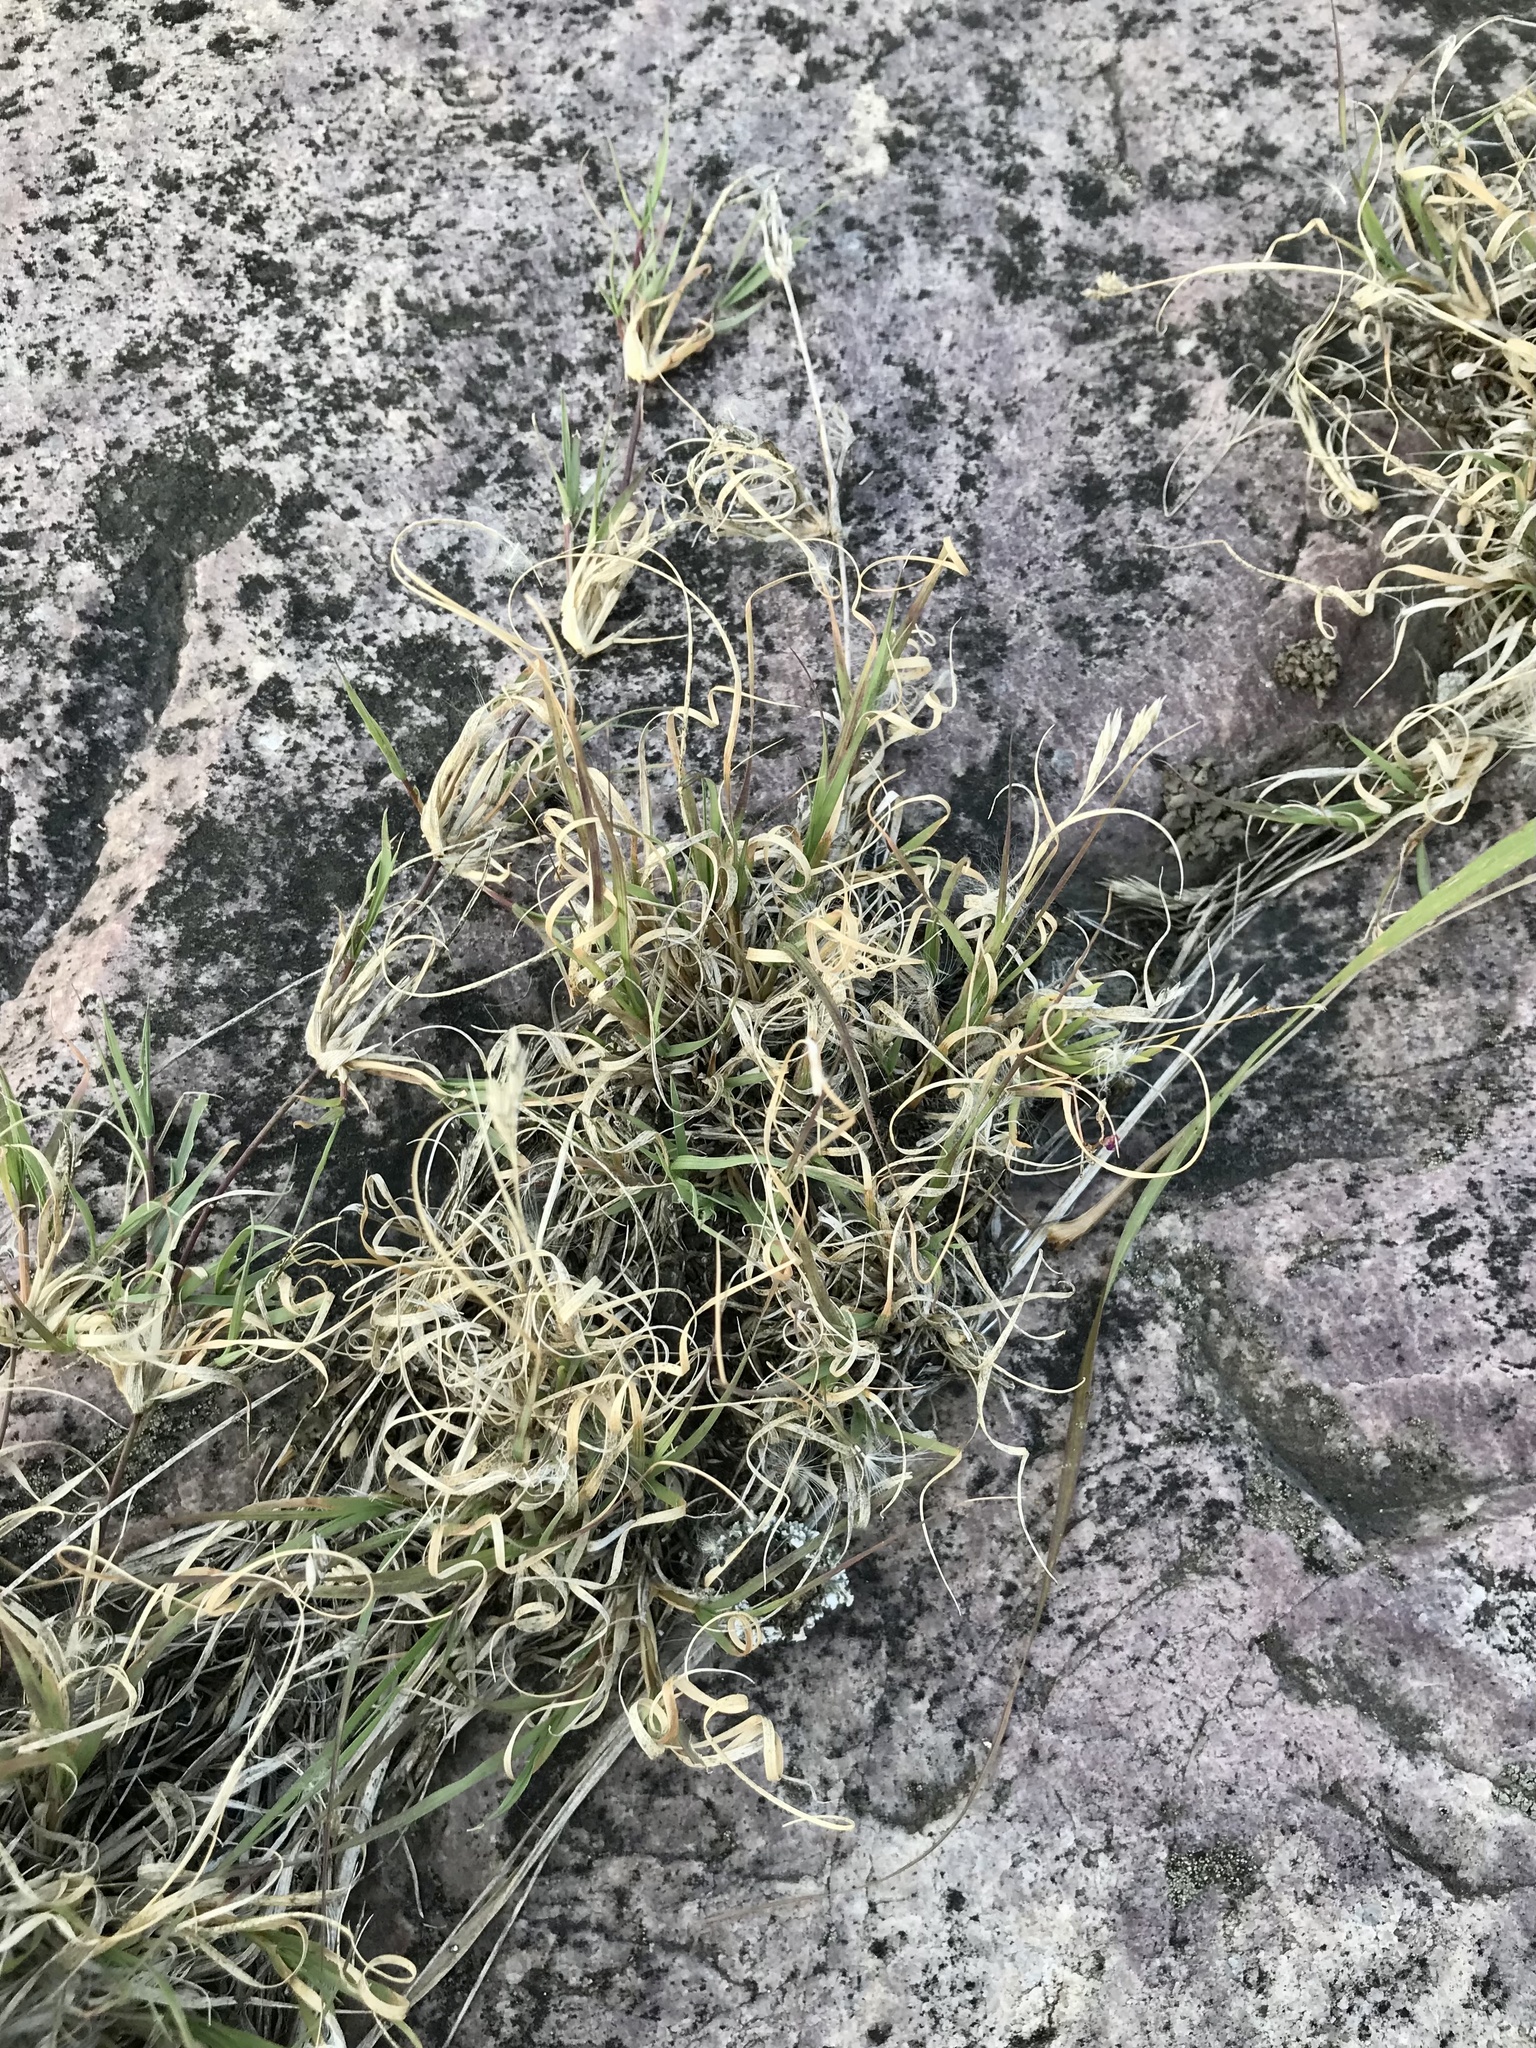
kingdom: Plantae
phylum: Tracheophyta
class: Liliopsida
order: Poales
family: Poaceae
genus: Bouteloua
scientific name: Bouteloua dactyloides
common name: Buffalo grass
